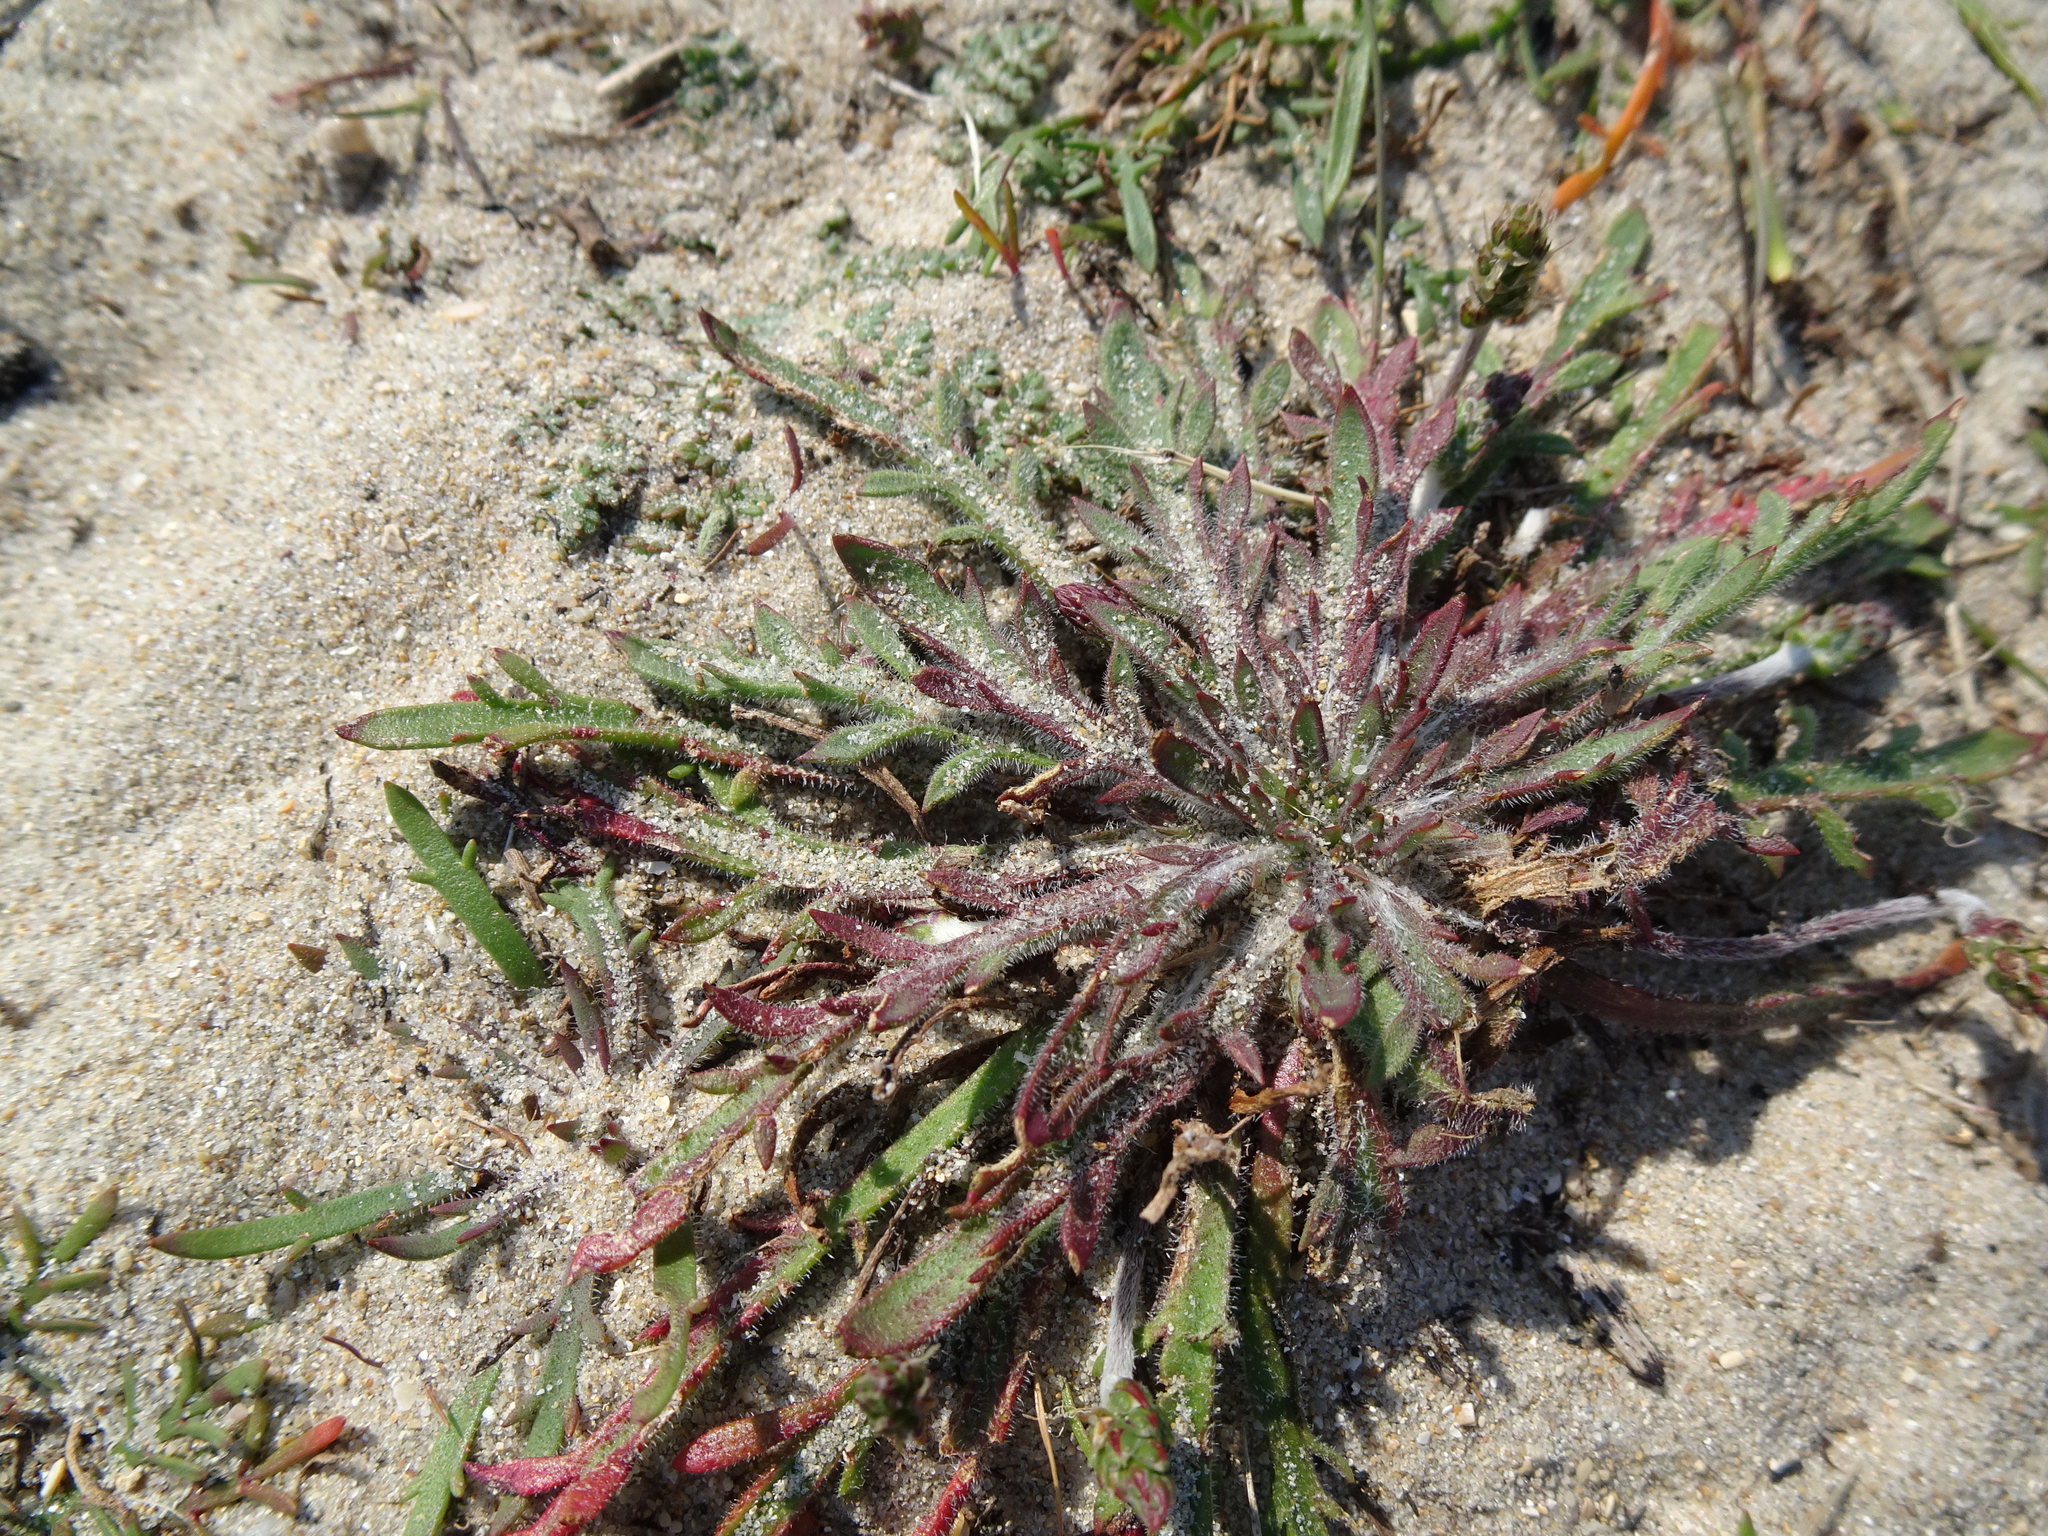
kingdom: Plantae
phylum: Tracheophyta
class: Magnoliopsida
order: Lamiales
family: Plantaginaceae
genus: Plantago
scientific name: Plantago coronopus
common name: Buck's-horn plantain
